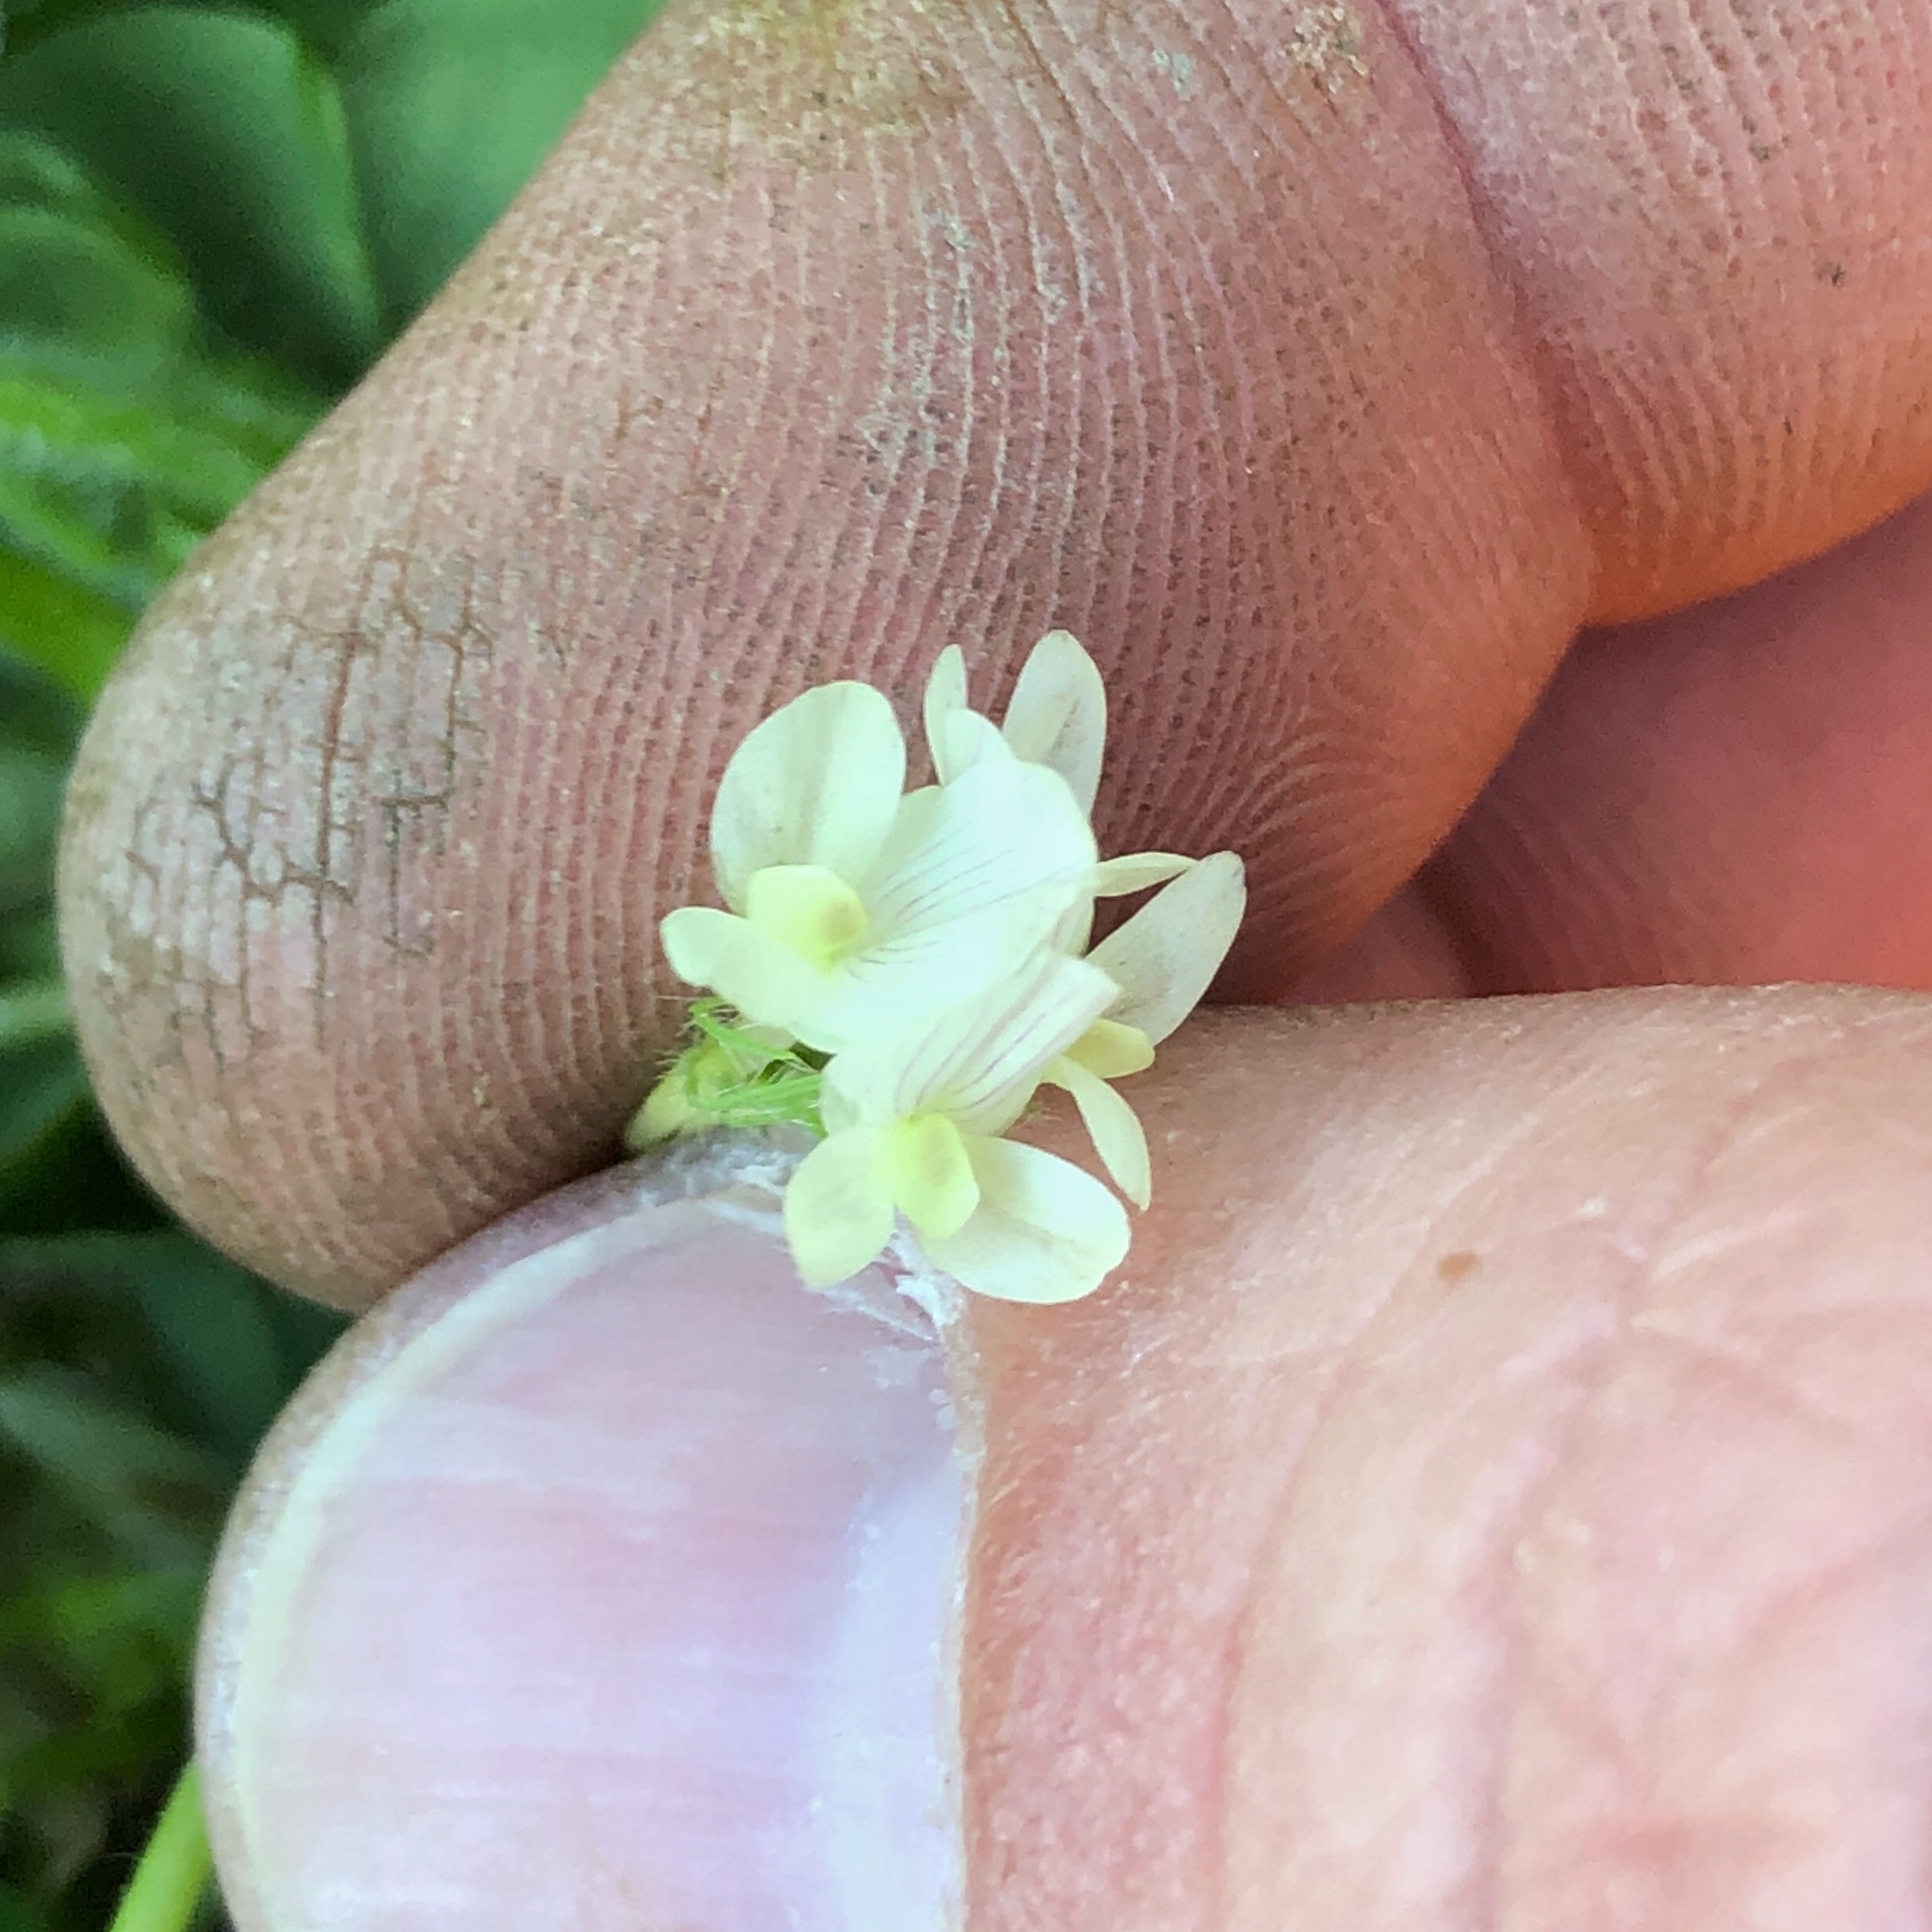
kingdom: Plantae
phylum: Tracheophyta
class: Magnoliopsida
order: Fabales
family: Fabaceae
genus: Trifolium
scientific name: Trifolium subterraneum
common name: Subterranean clover
